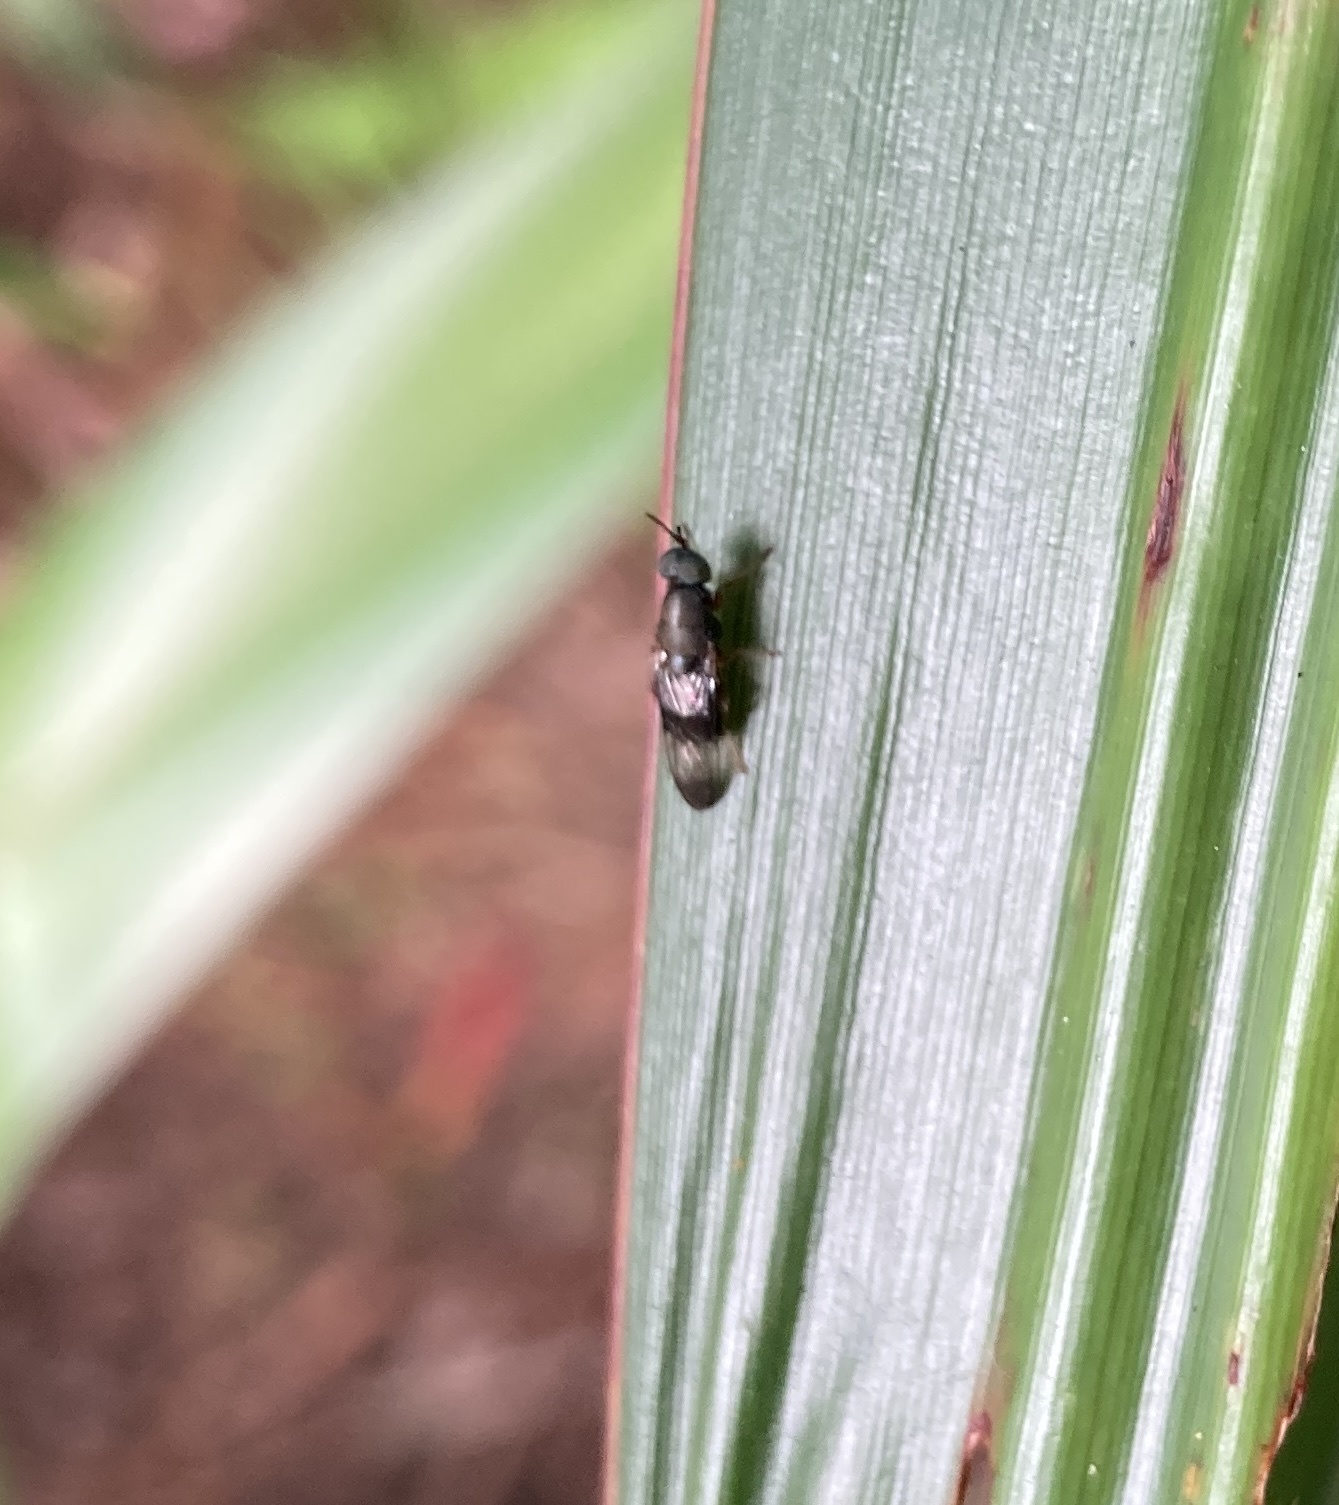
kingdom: Animalia
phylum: Arthropoda
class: Insecta
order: Diptera
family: Stratiomyidae
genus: Dysbiota
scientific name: Dysbiota peregrina
